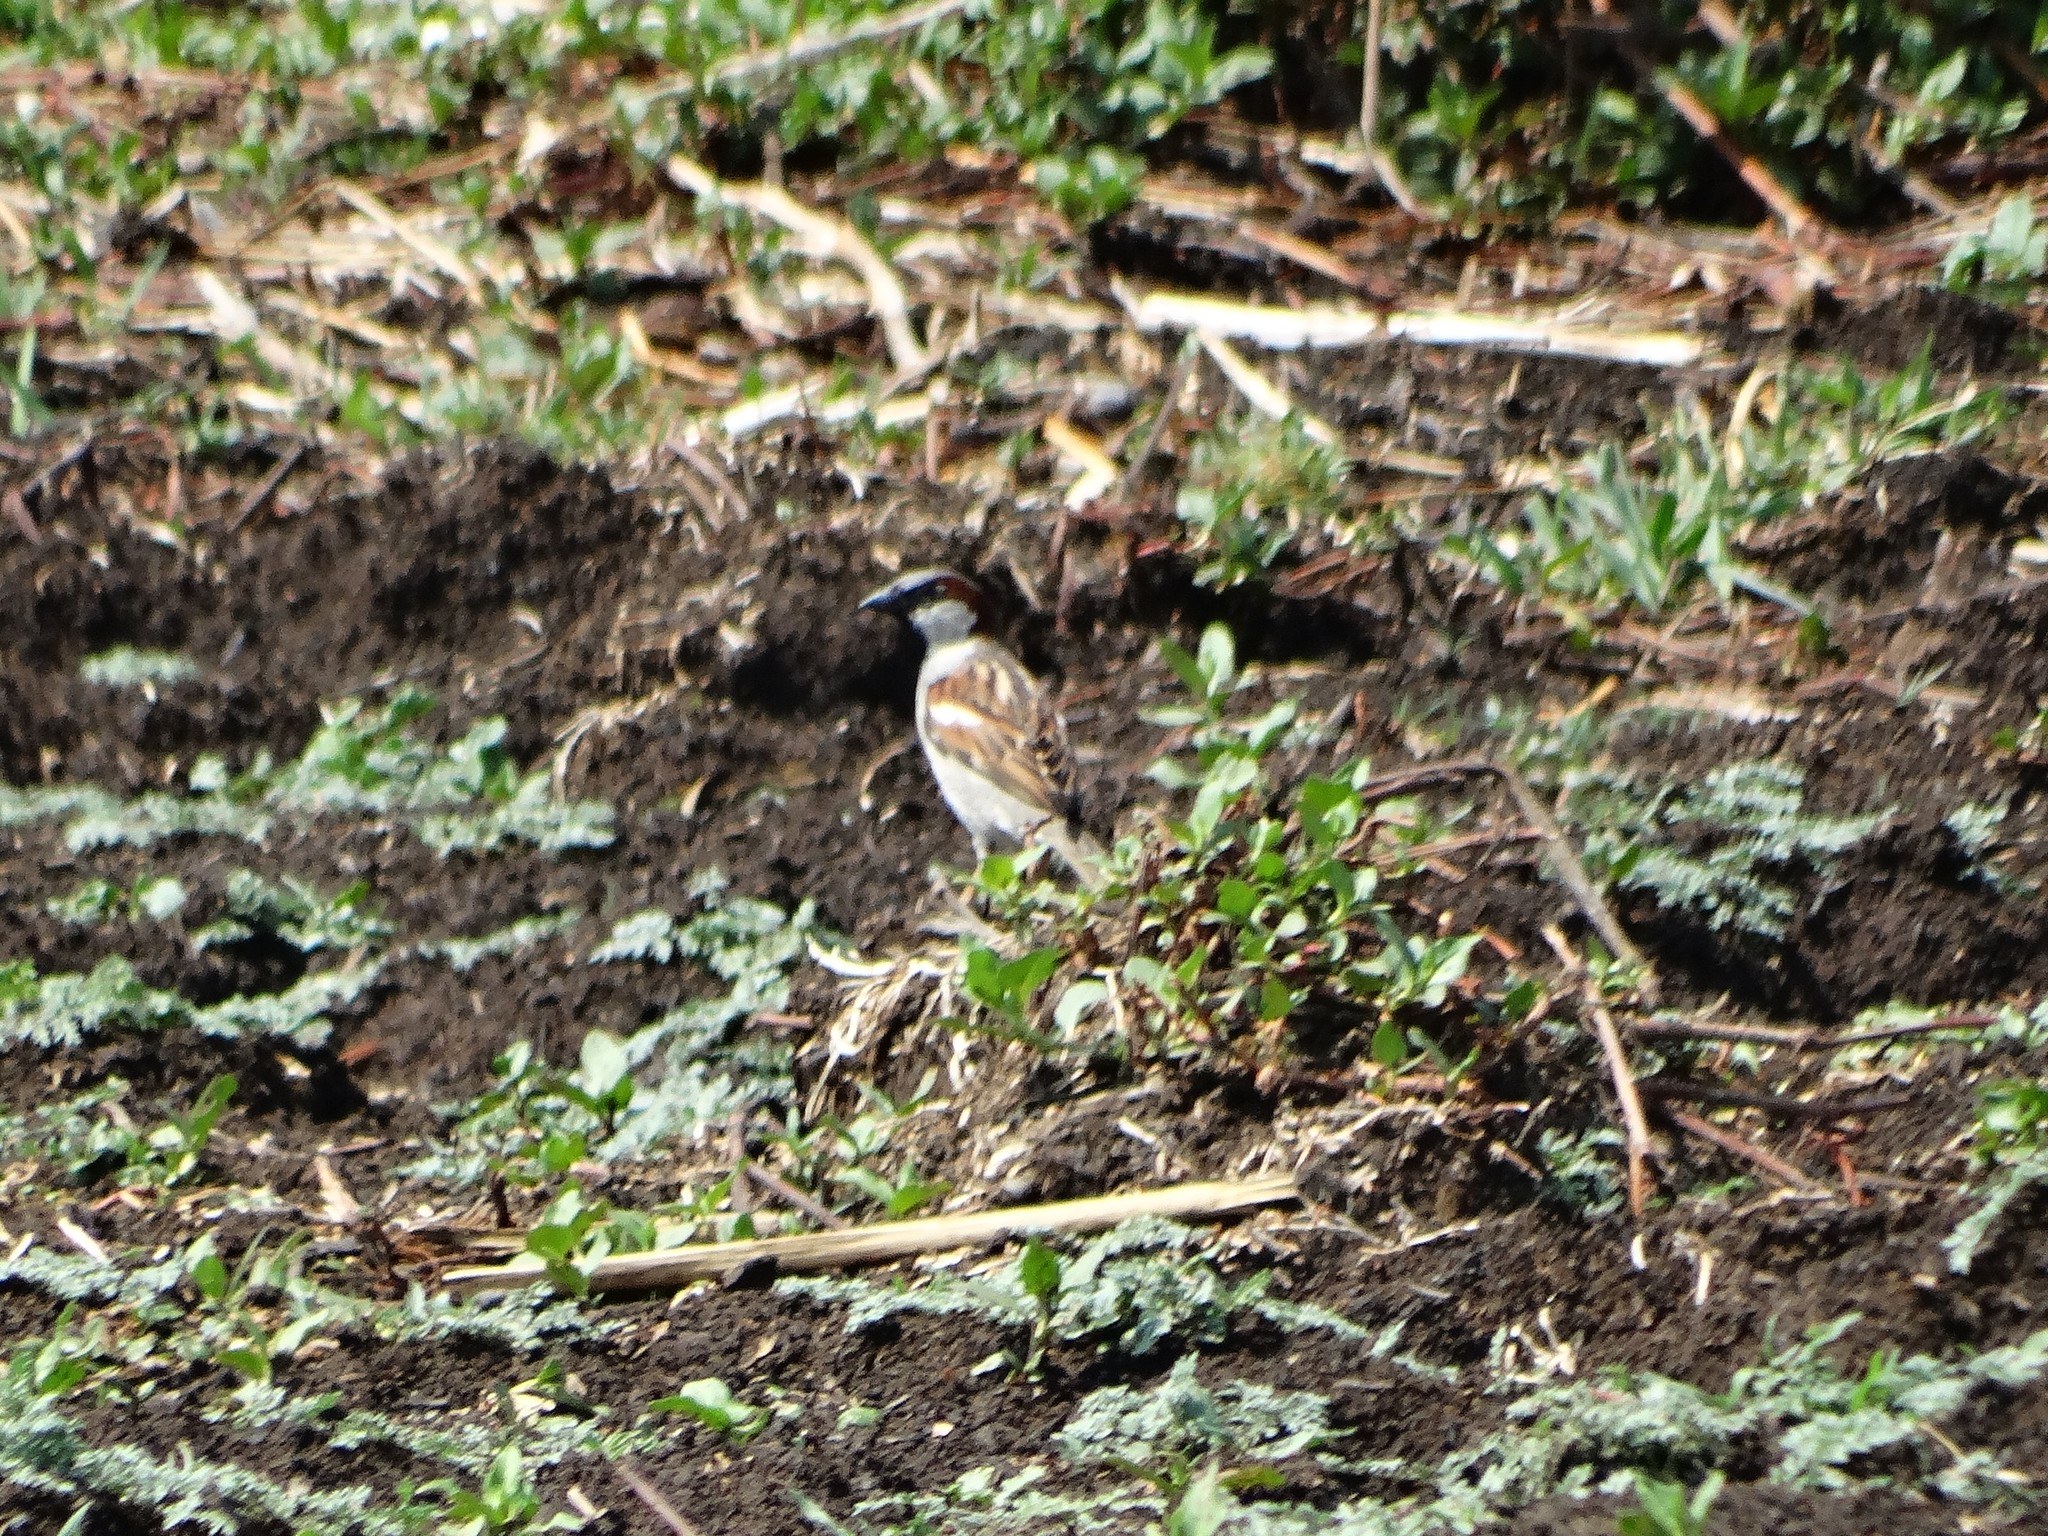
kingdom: Animalia
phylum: Chordata
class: Aves
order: Passeriformes
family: Passeridae
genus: Passer
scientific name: Passer domesticus
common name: House sparrow
